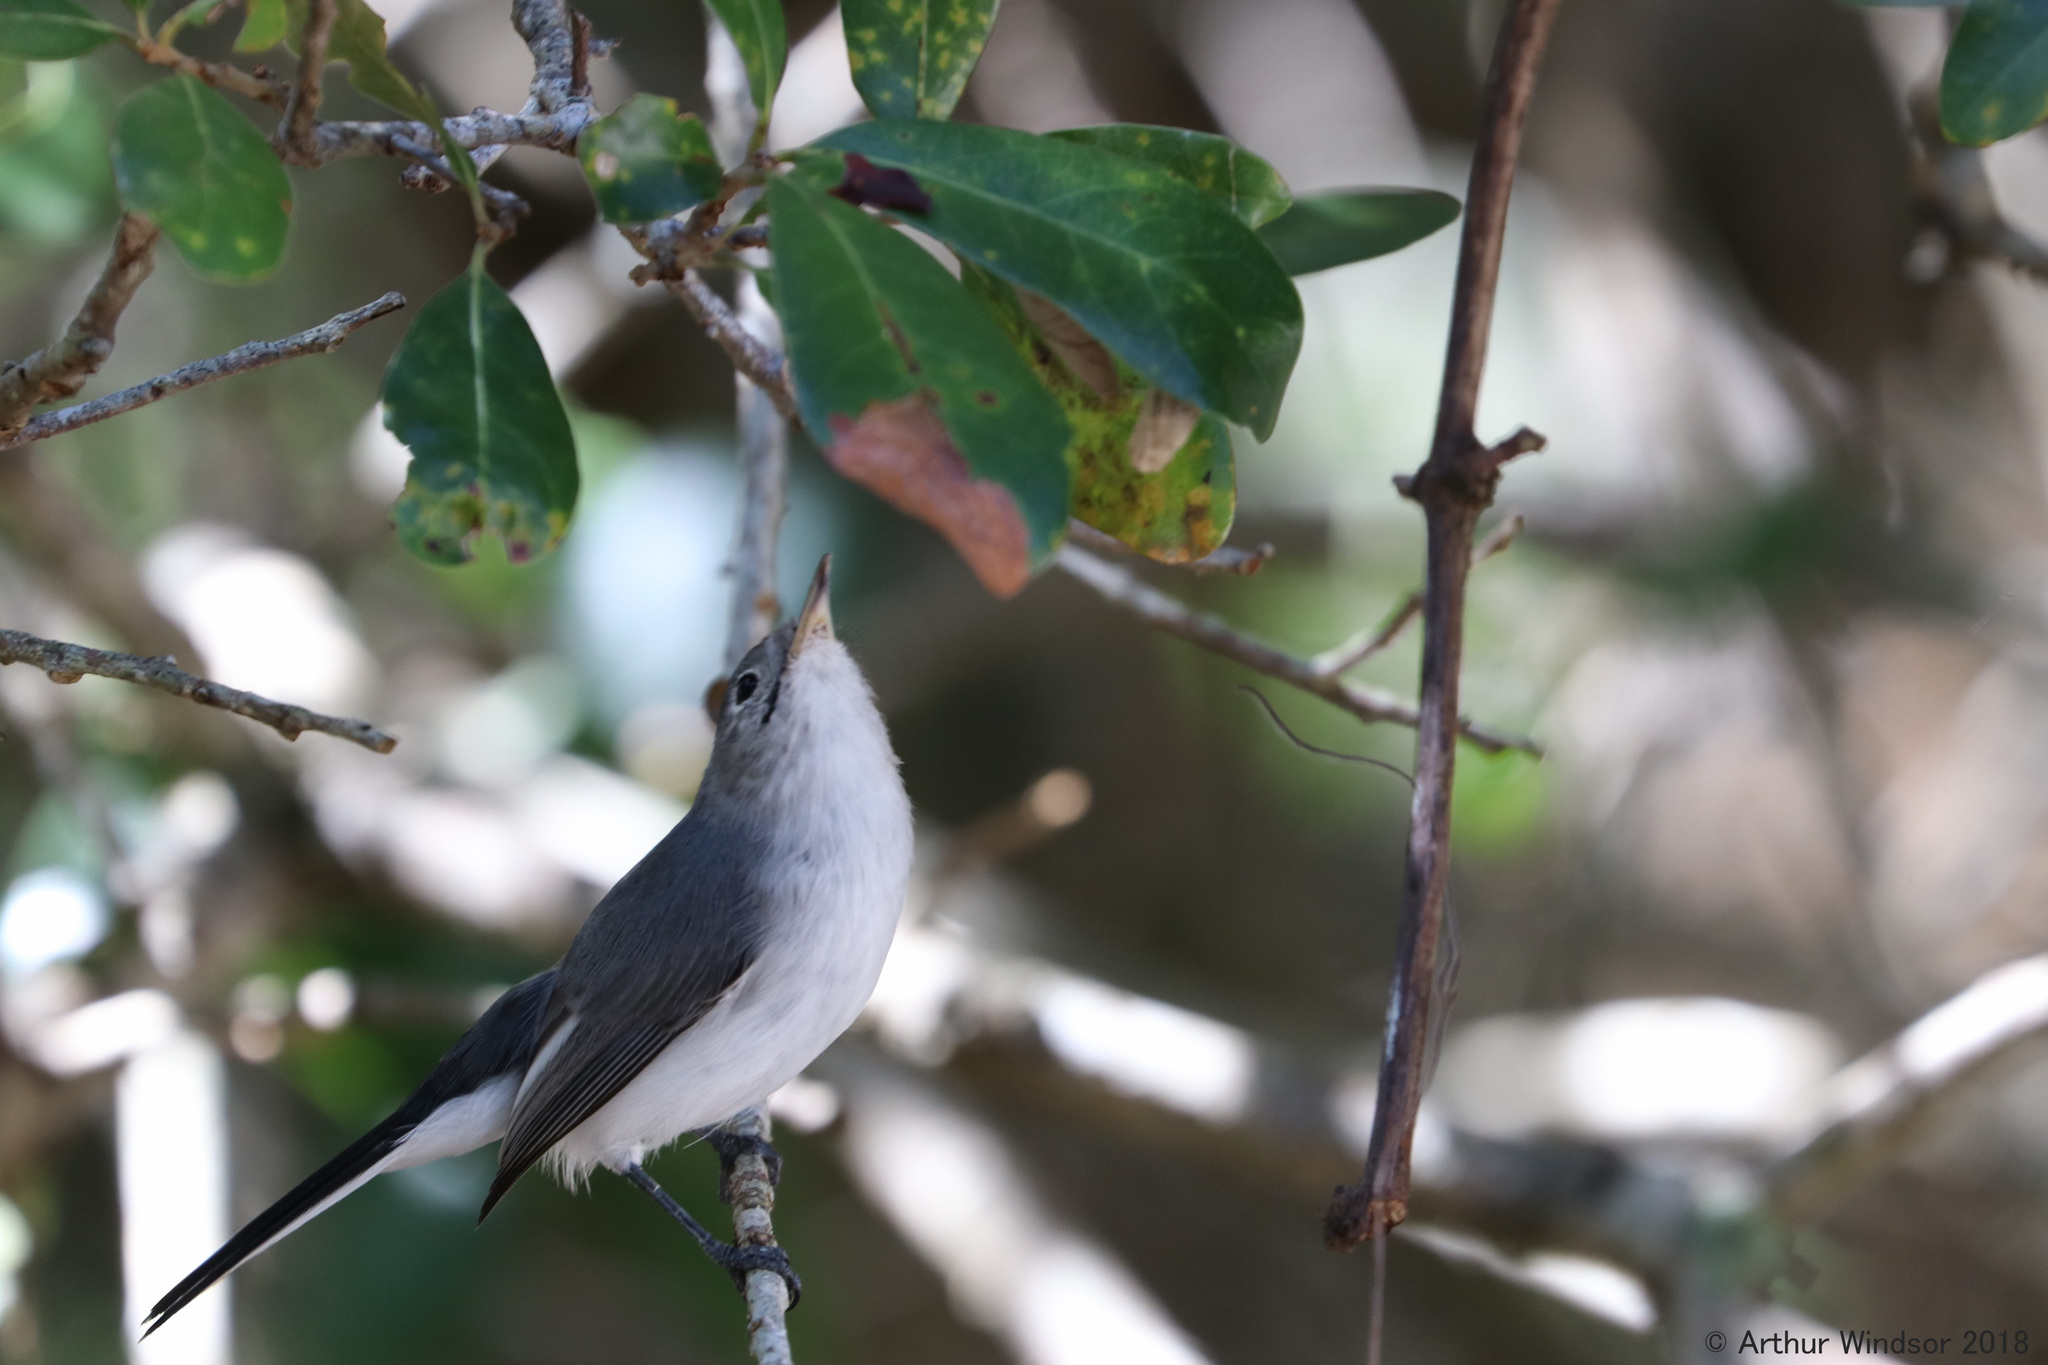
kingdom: Animalia
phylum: Chordata
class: Aves
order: Passeriformes
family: Polioptilidae
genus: Polioptila
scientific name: Polioptila caerulea
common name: Blue-gray gnatcatcher
